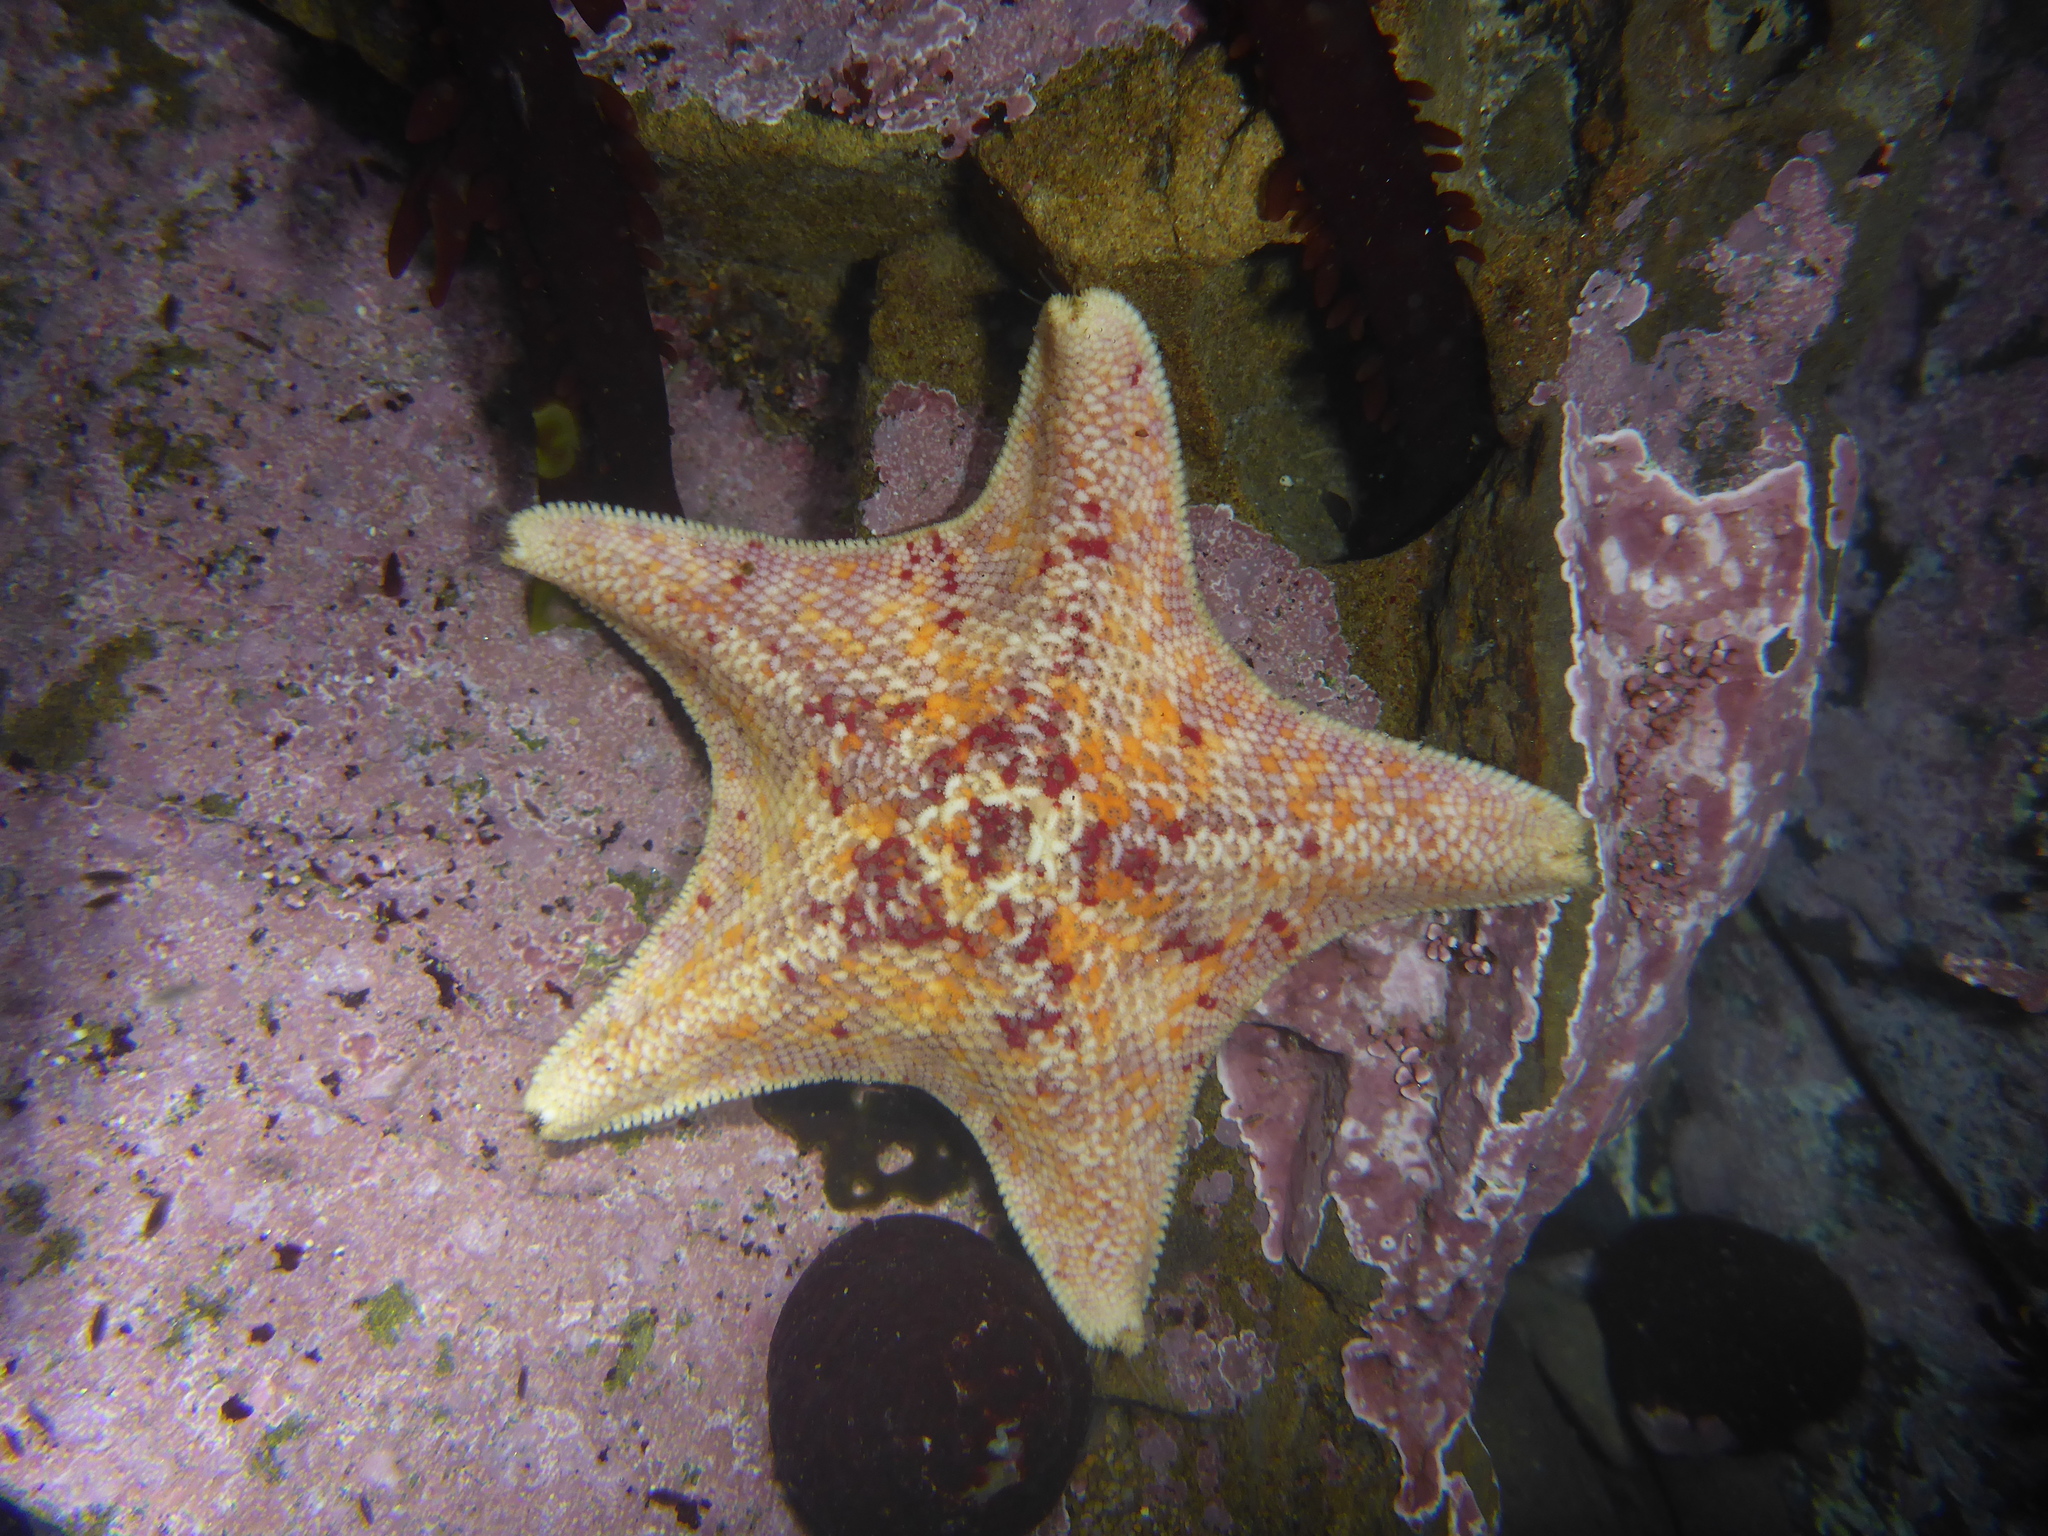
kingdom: Animalia
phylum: Echinodermata
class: Asteroidea
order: Valvatida
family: Asterinidae
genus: Patiria
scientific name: Patiria miniata
